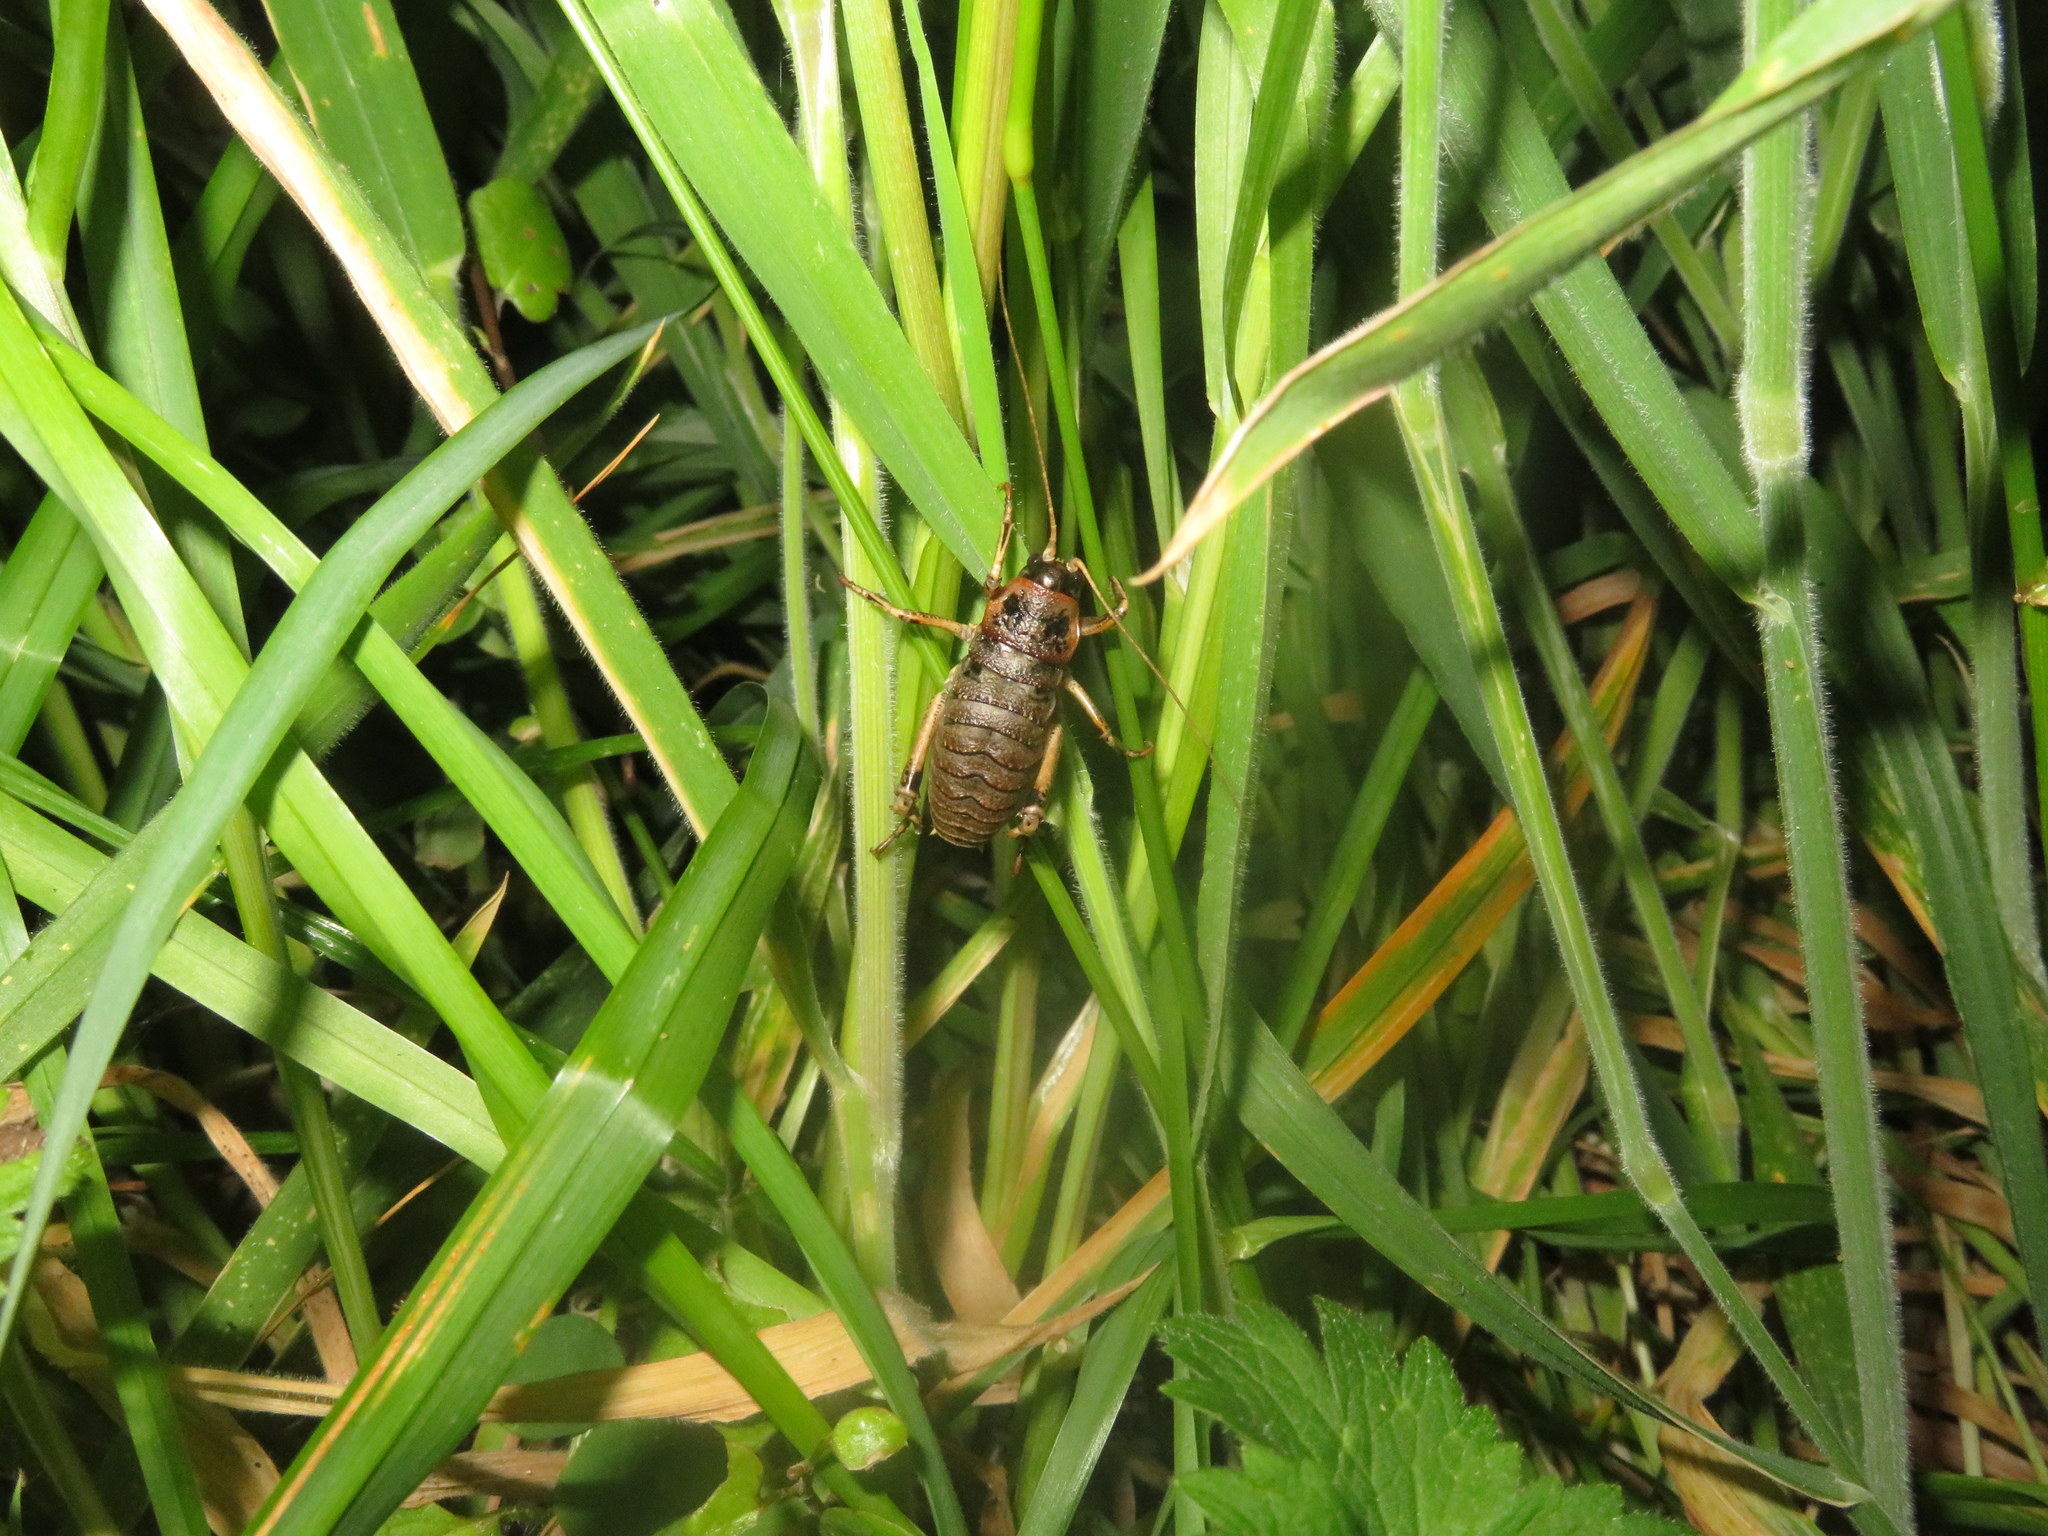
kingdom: Animalia
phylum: Arthropoda
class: Insecta
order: Orthoptera
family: Anostostomatidae
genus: Deinacrida
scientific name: Deinacrida rugosa
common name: Stephens island weta
